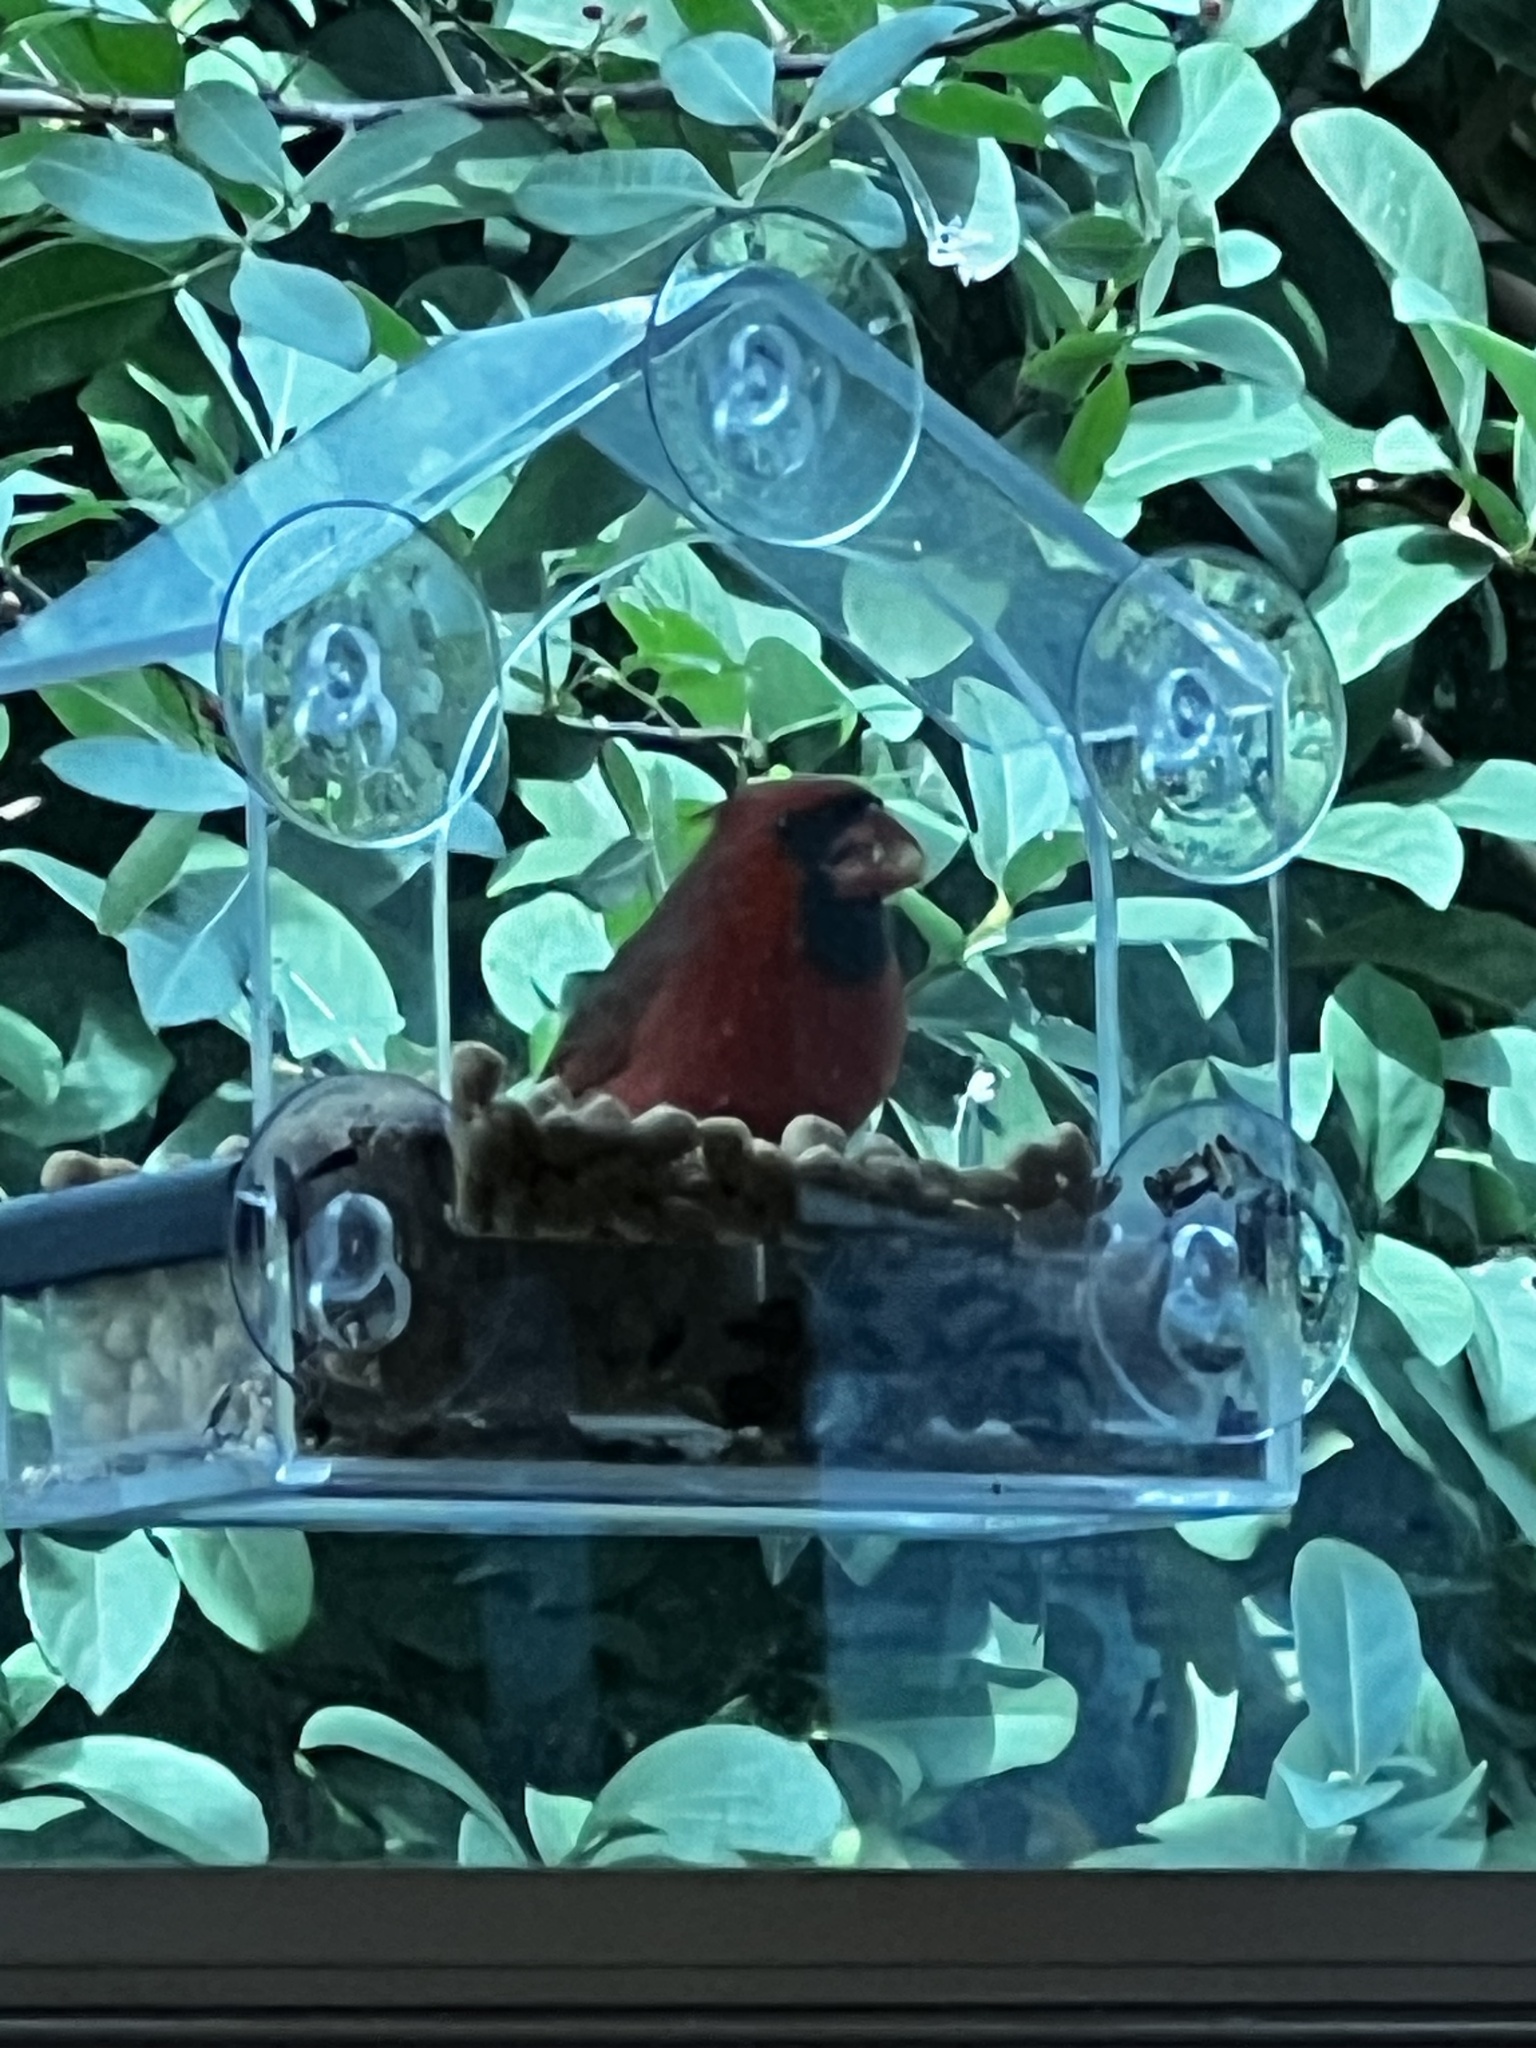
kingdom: Animalia
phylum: Chordata
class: Aves
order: Passeriformes
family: Cardinalidae
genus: Cardinalis
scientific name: Cardinalis cardinalis
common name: Northern cardinal
